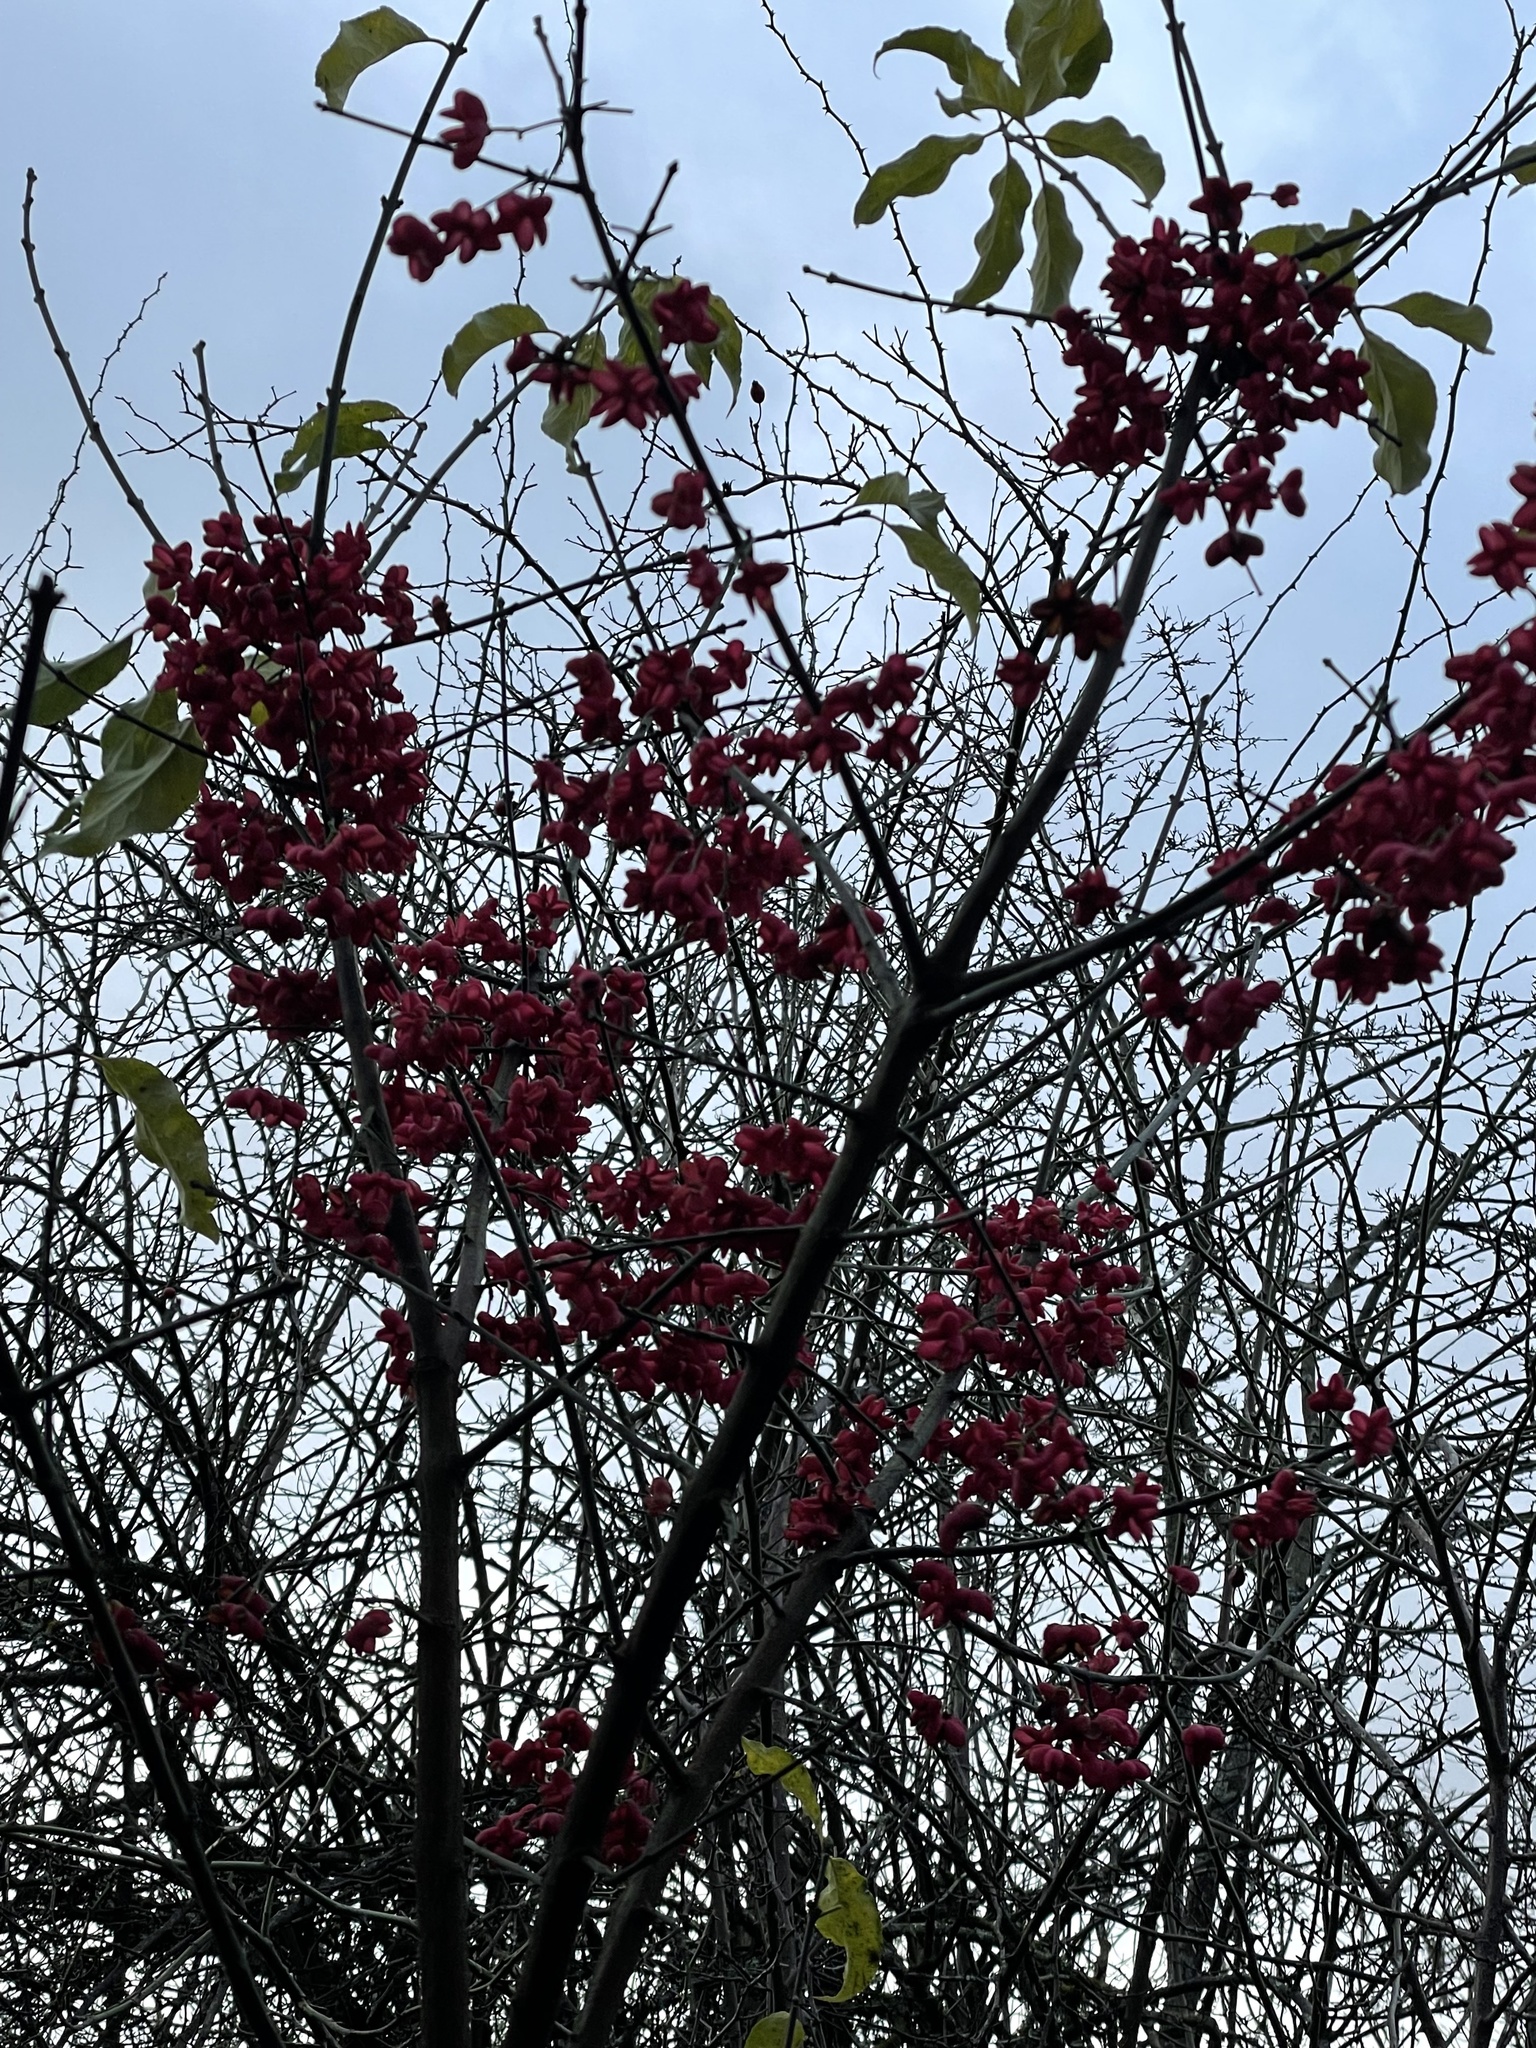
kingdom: Plantae
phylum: Tracheophyta
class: Magnoliopsida
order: Celastrales
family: Celastraceae
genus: Euonymus
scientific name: Euonymus europaeus
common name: Spindle
